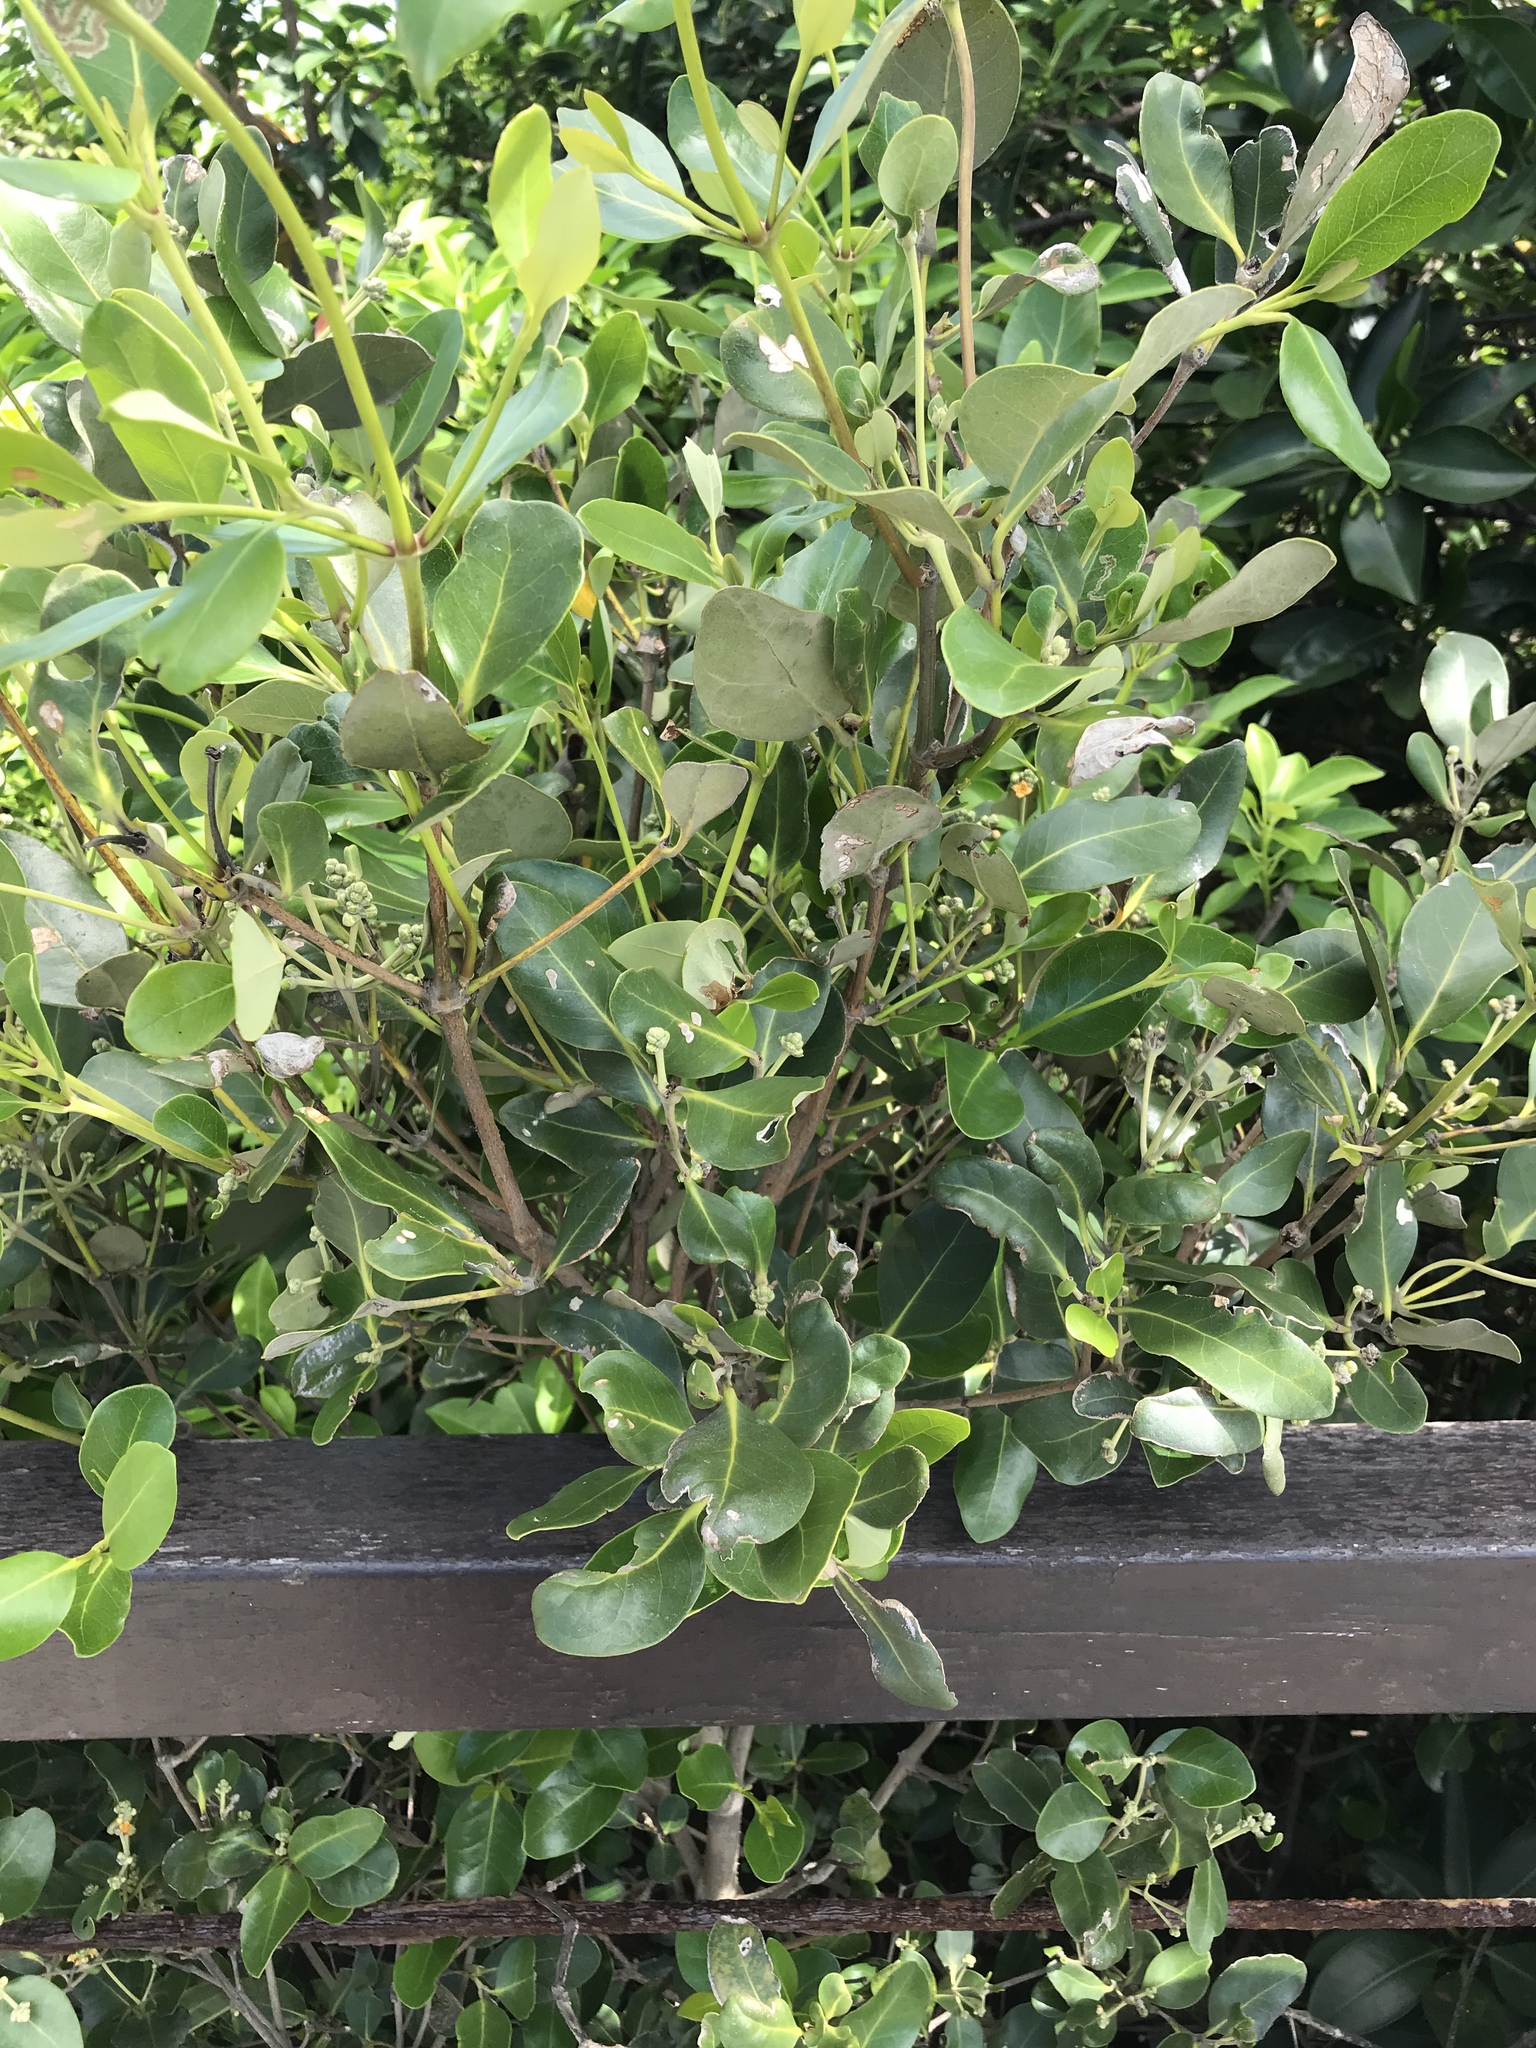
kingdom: Plantae
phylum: Tracheophyta
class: Magnoliopsida
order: Lamiales
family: Acanthaceae
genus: Avicennia
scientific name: Avicennia marina
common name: Gray mangrove
